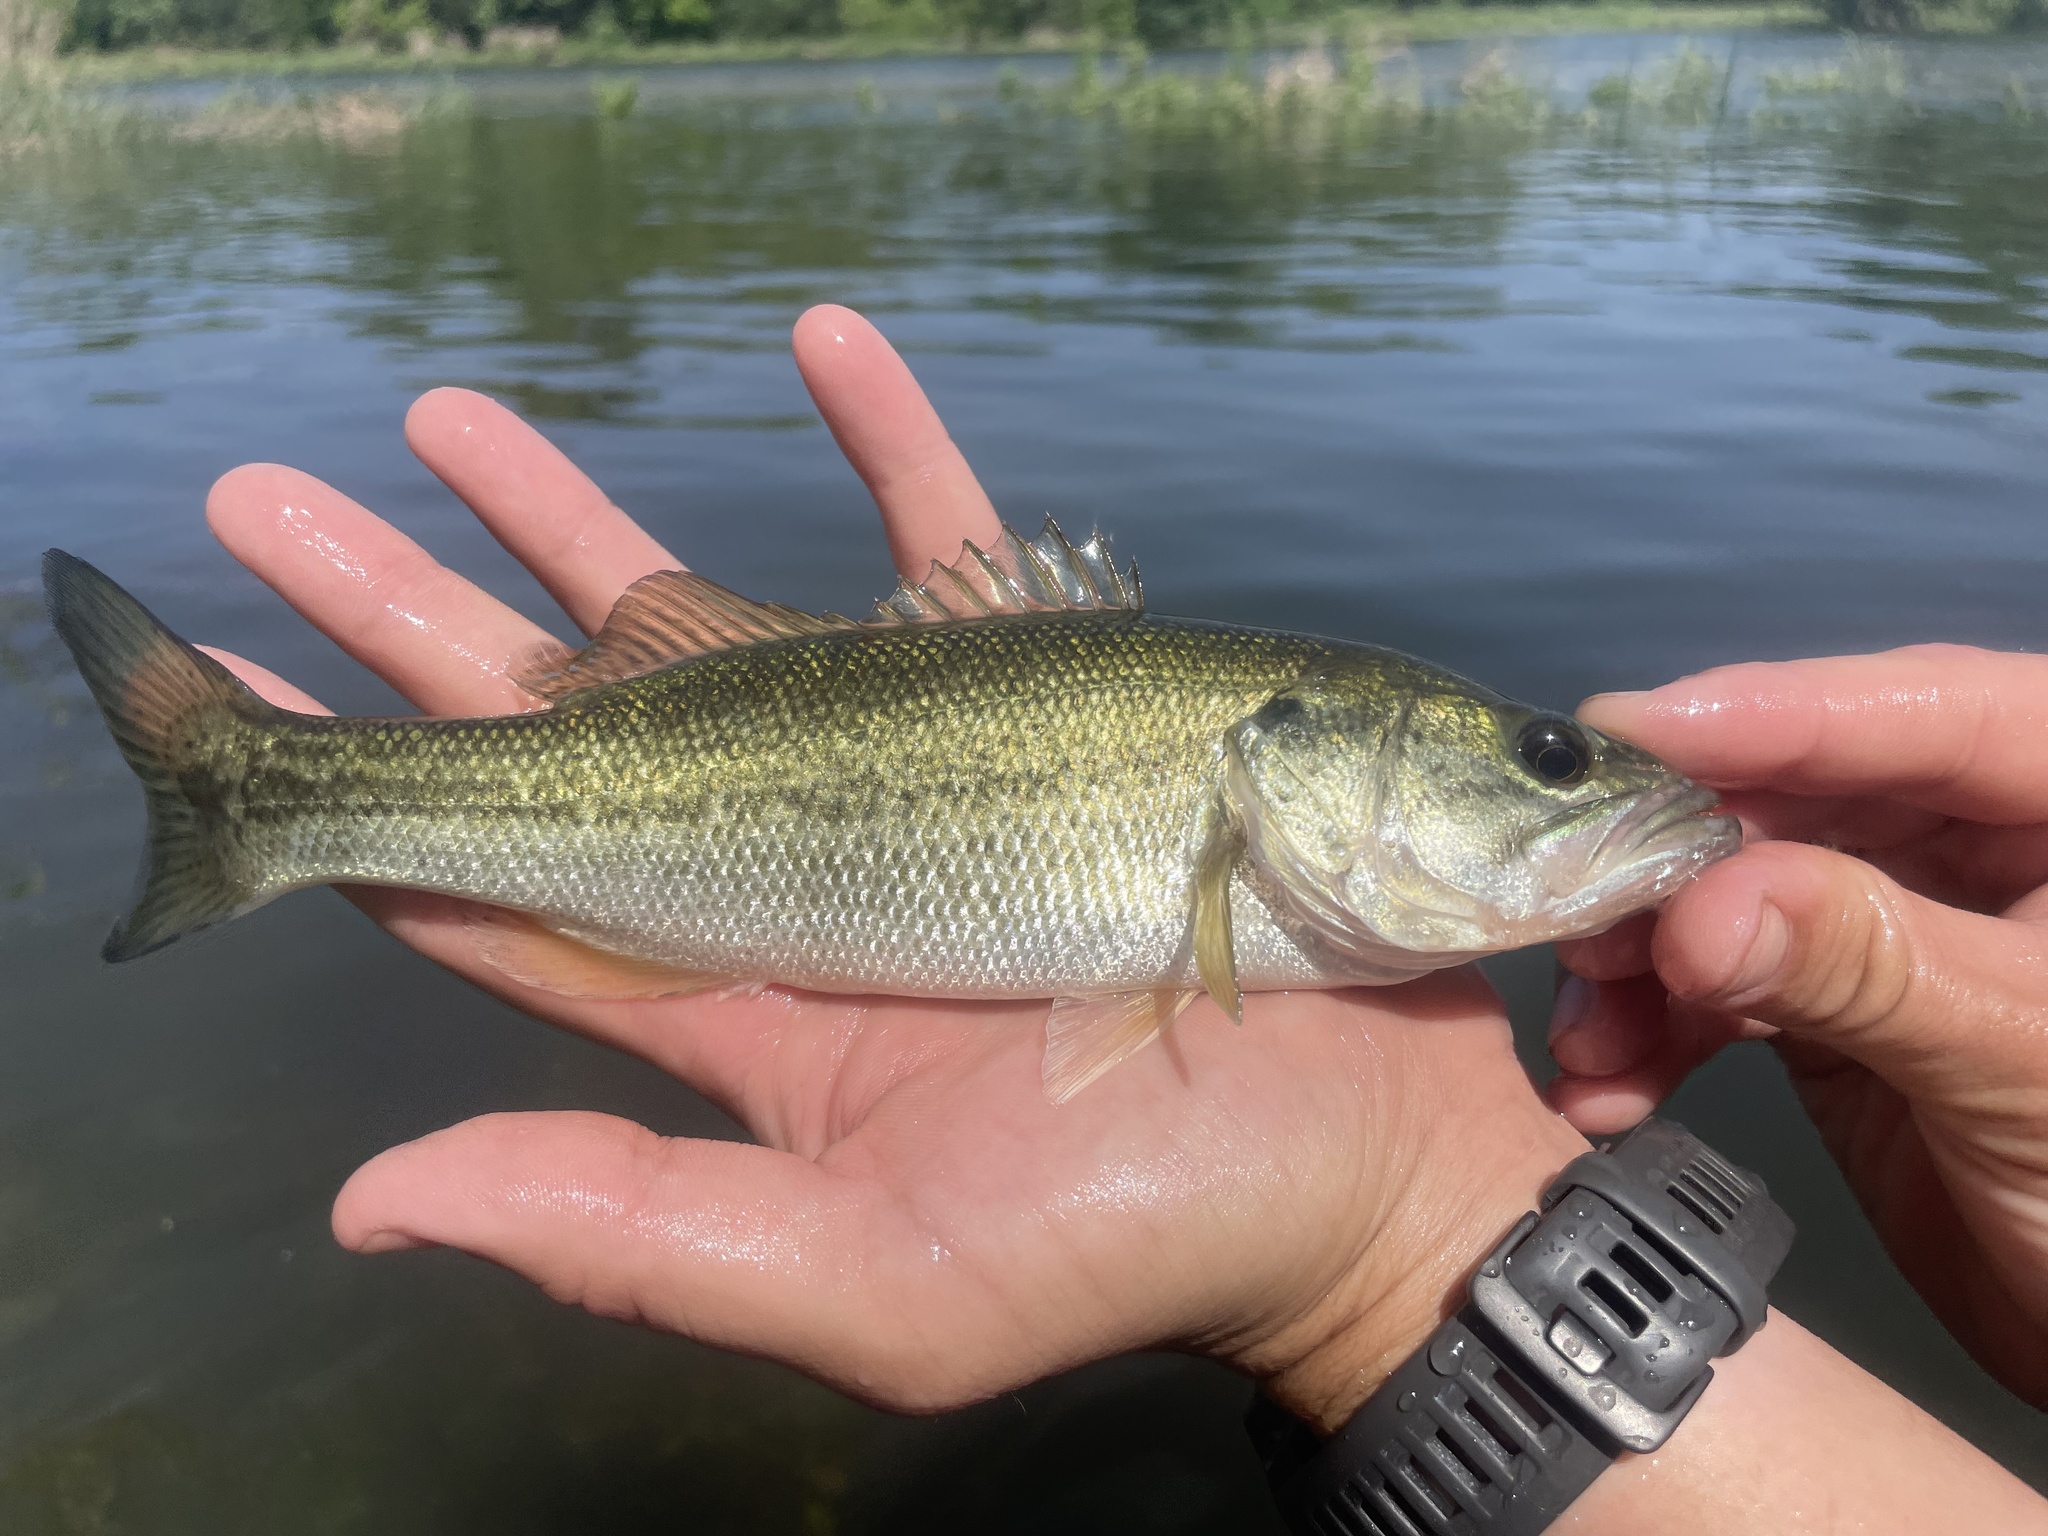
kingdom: Animalia
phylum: Chordata
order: Perciformes
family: Centrarchidae
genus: Micropterus
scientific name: Micropterus
